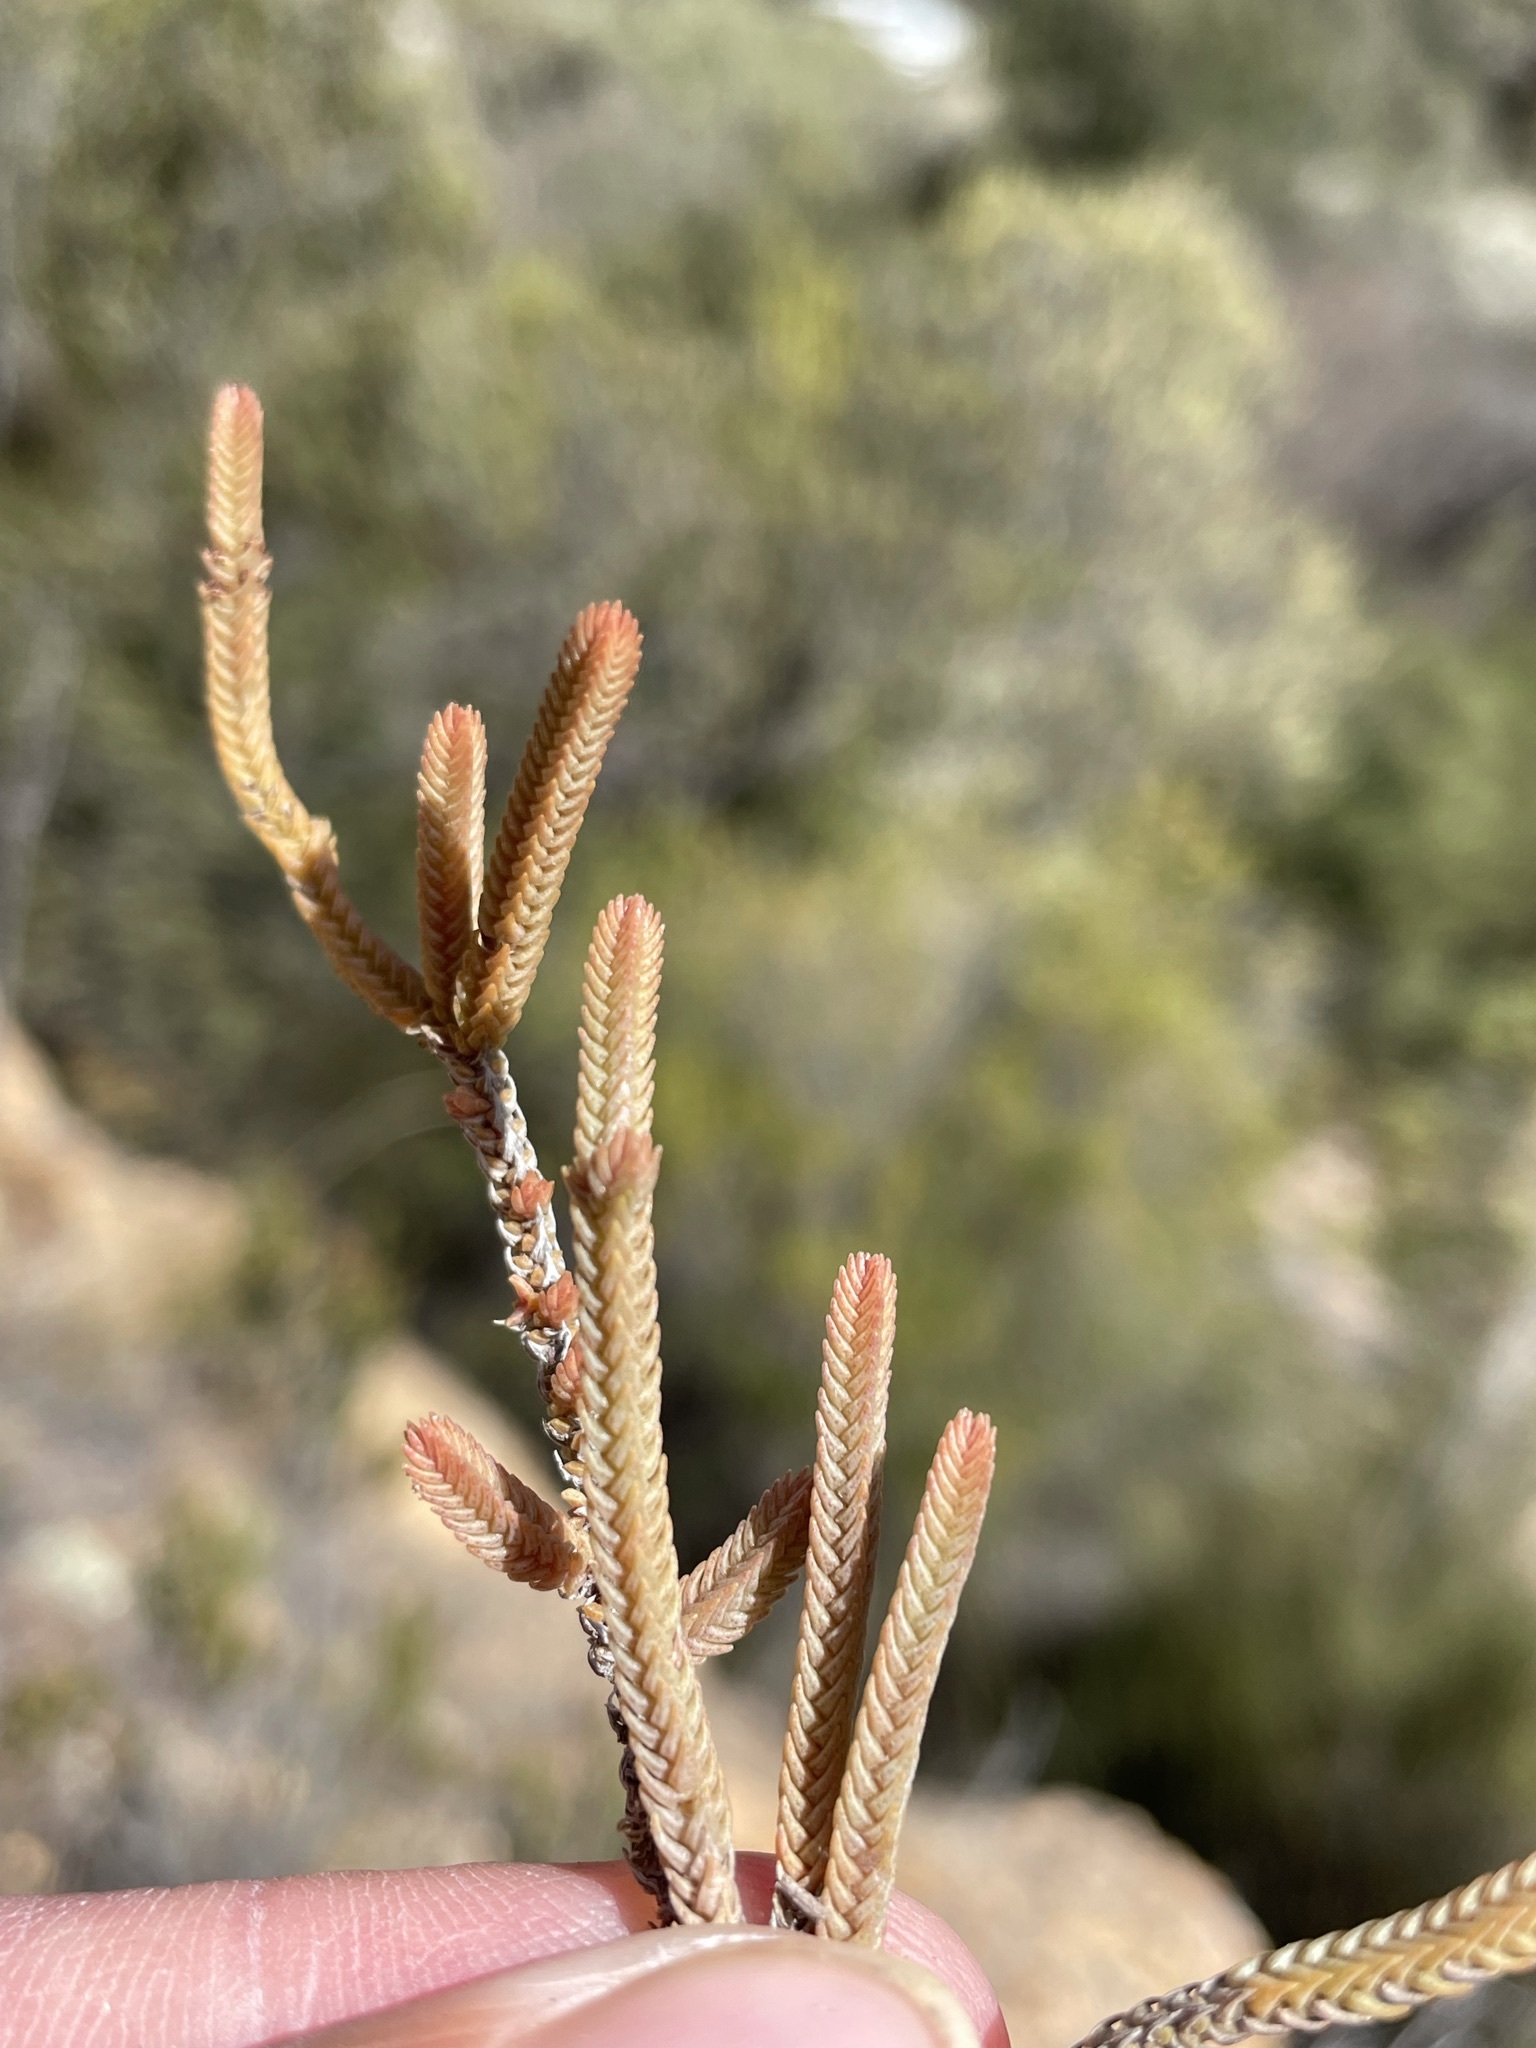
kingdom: Plantae
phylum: Tracheophyta
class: Magnoliopsida
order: Saxifragales
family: Crassulaceae
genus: Crassula
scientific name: Crassula muscosa
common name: Toy-cypress
